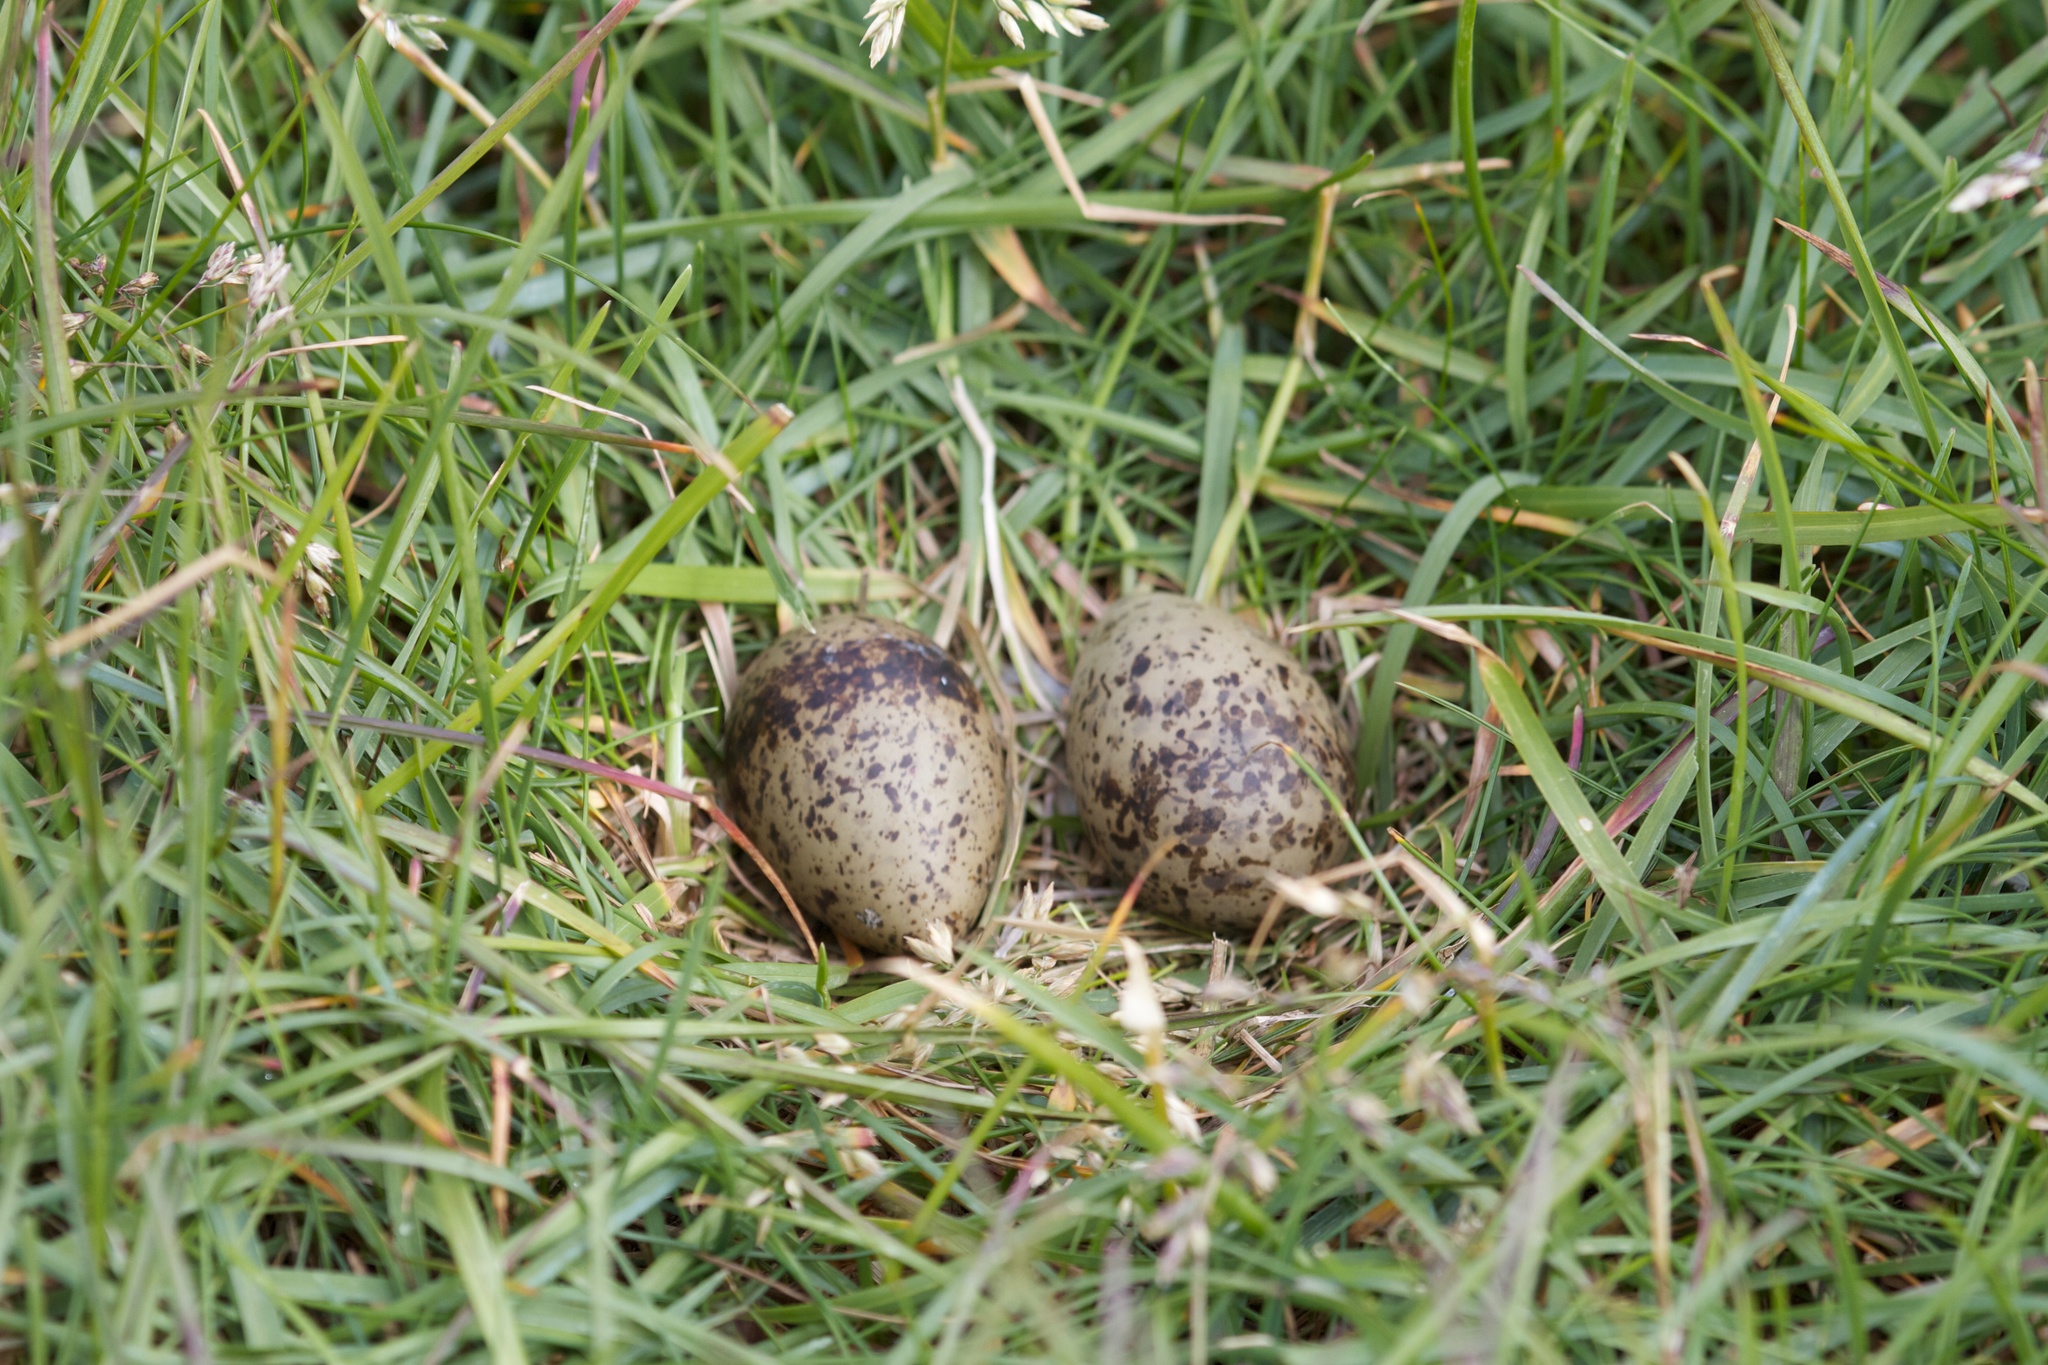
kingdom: Animalia
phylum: Chordata
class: Aves
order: Charadriiformes
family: Laridae
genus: Sterna
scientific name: Sterna paradisaea
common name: Arctic tern
